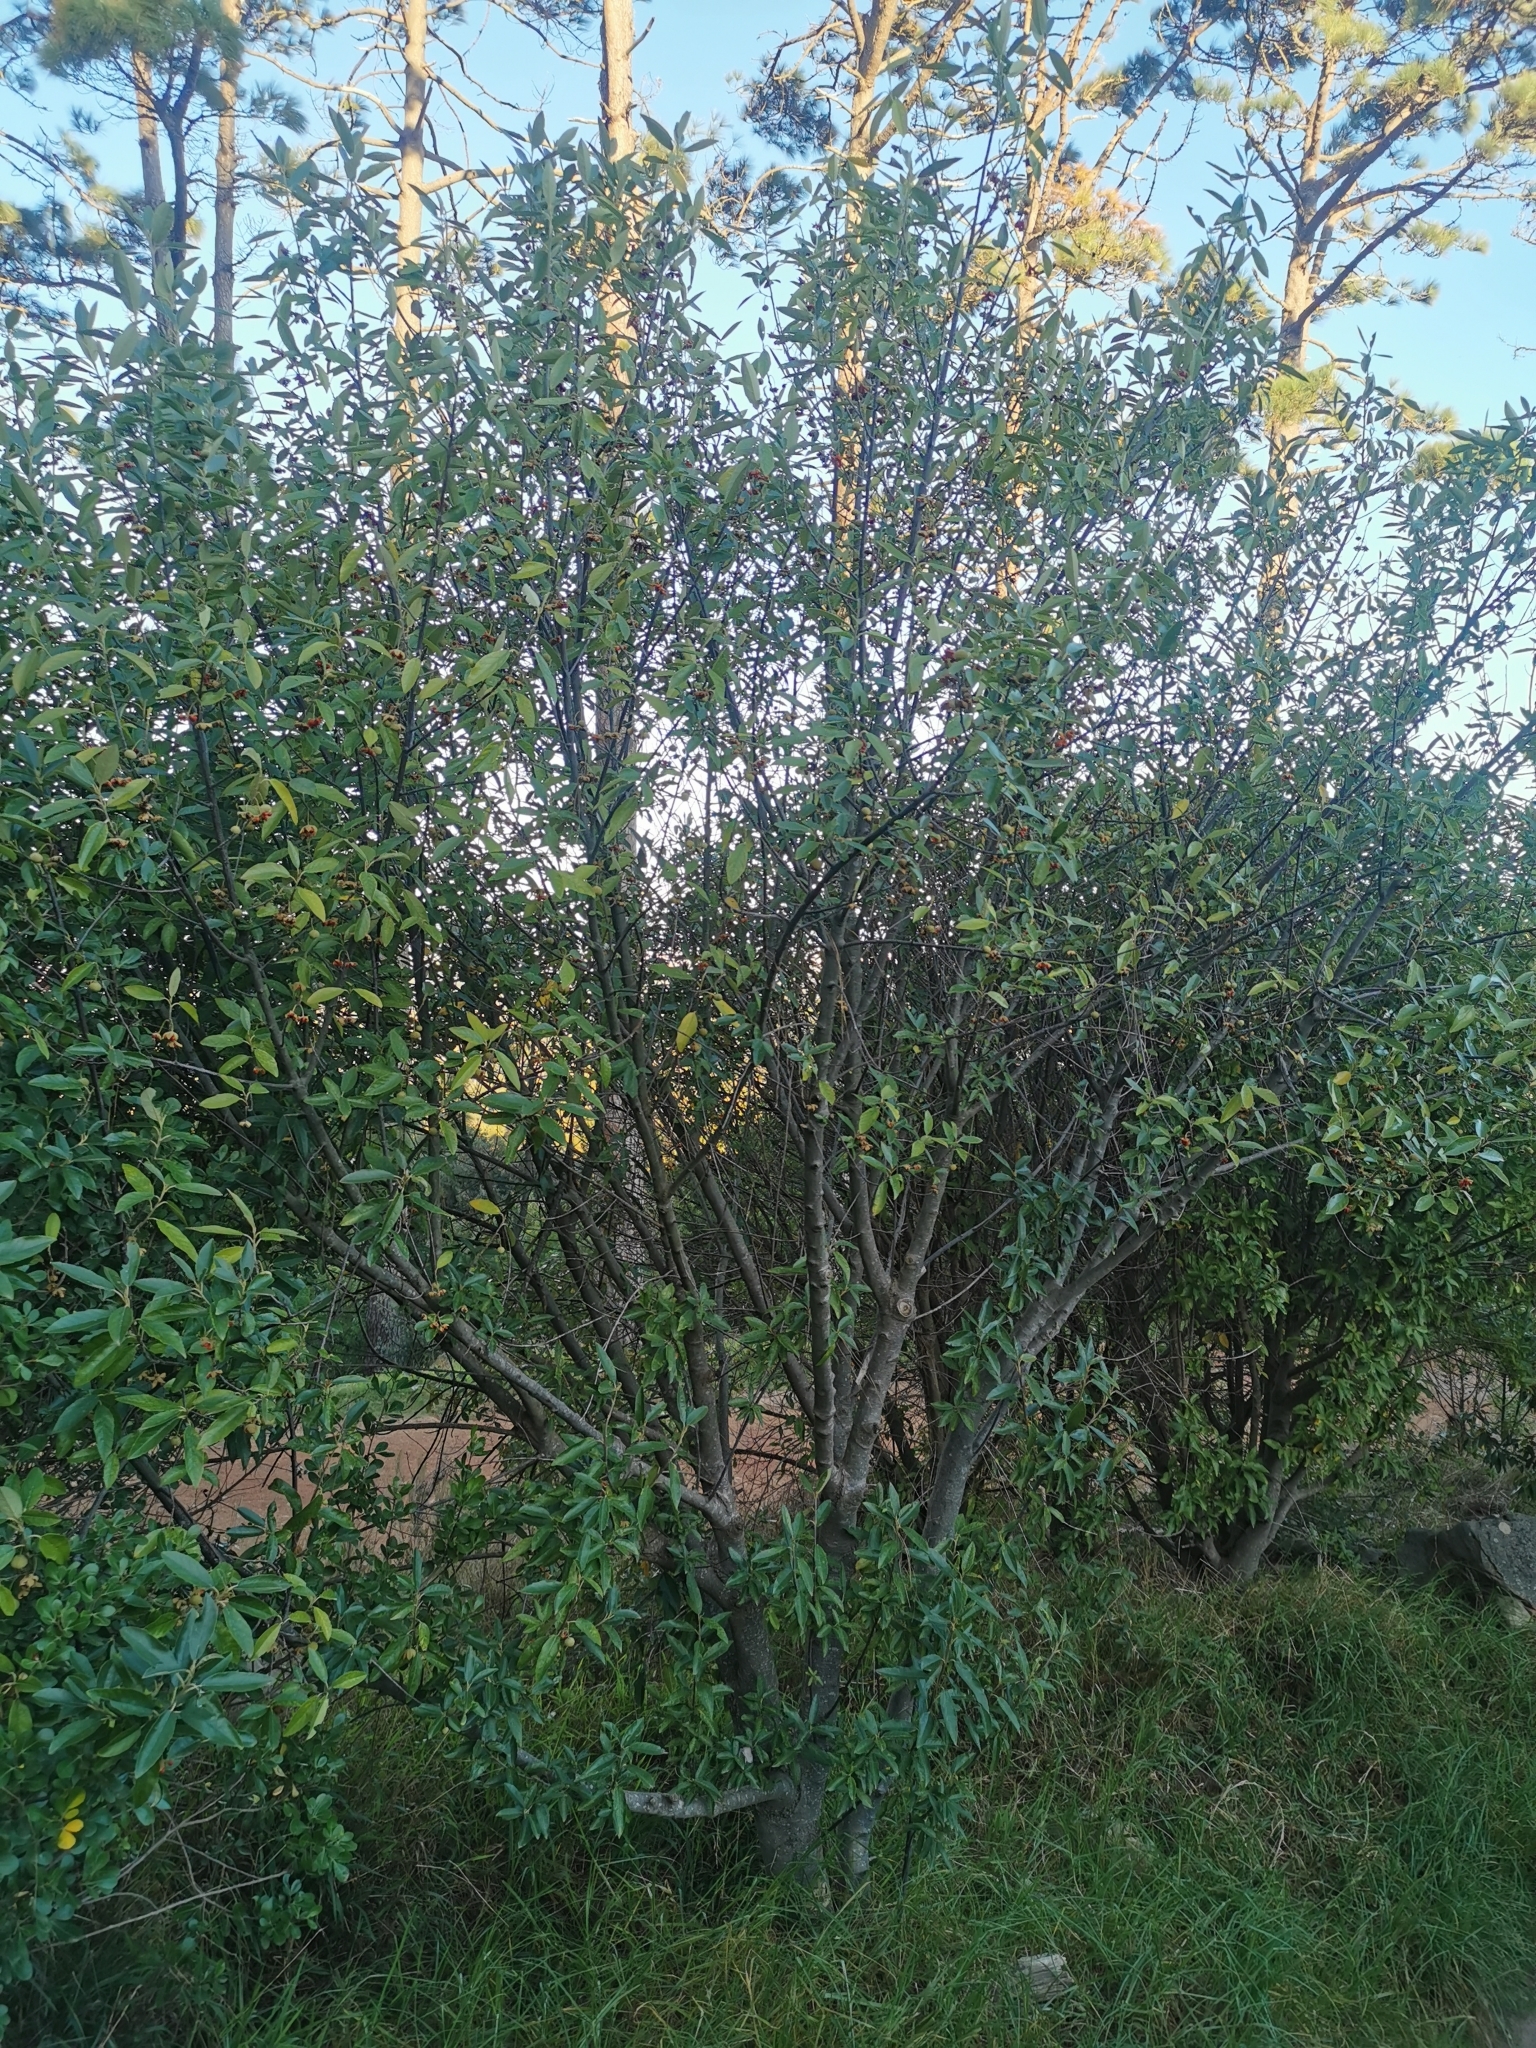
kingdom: Plantae
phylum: Tracheophyta
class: Magnoliopsida
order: Malpighiales
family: Achariaceae
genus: Kiggelaria
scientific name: Kiggelaria africana
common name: Wild peach
